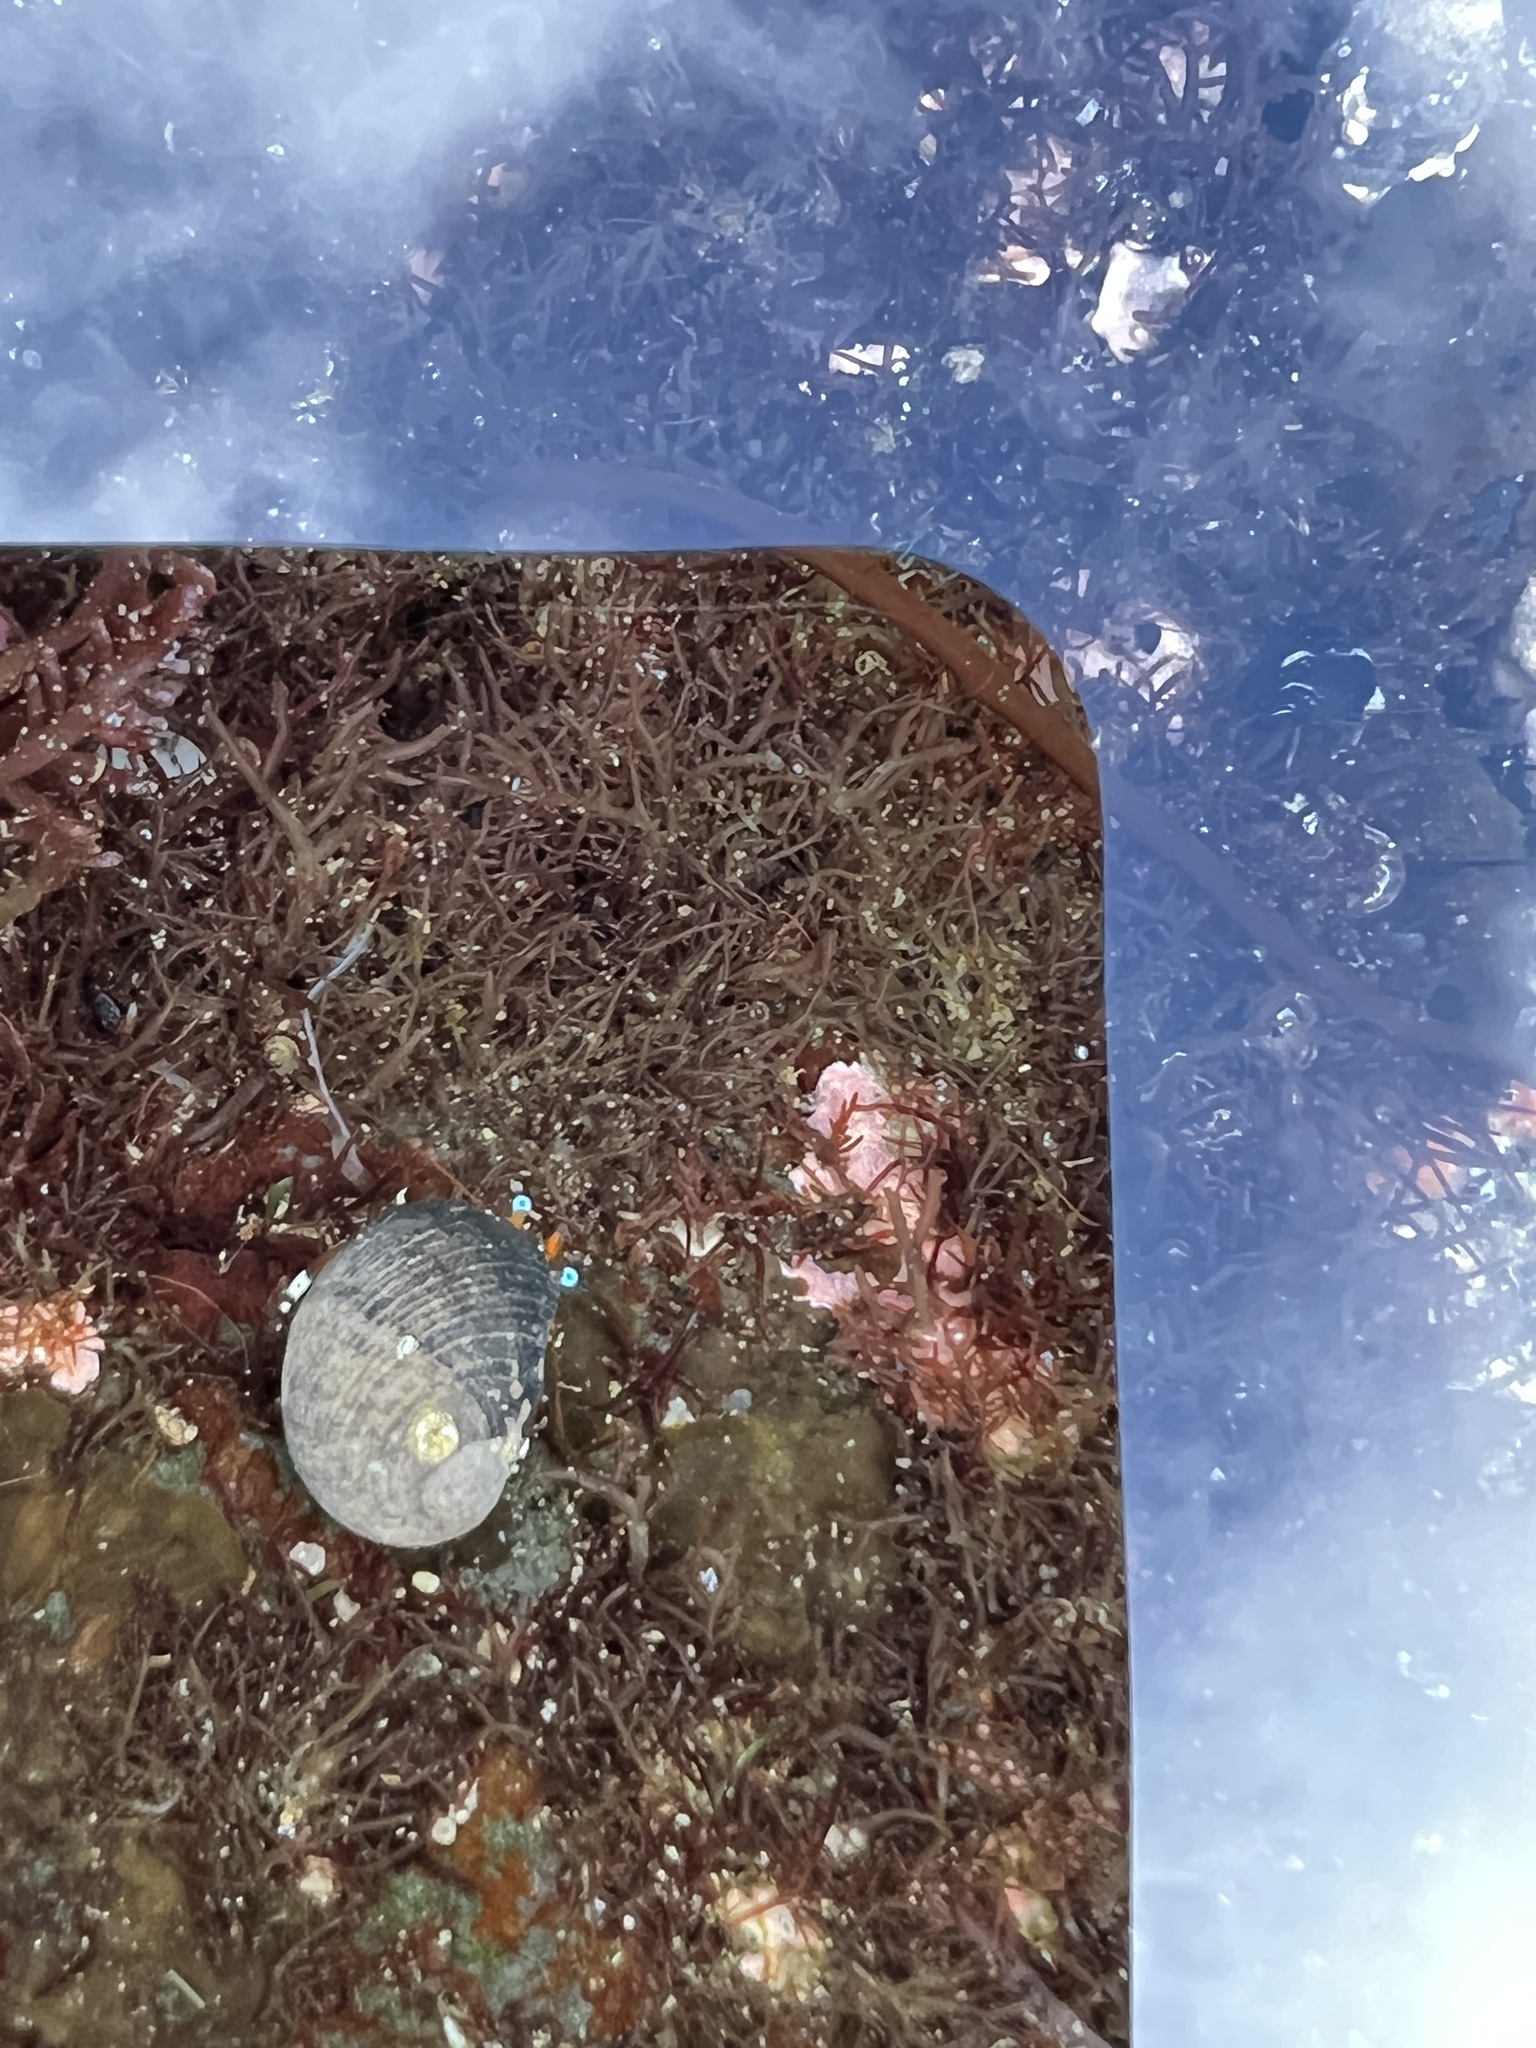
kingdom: Animalia
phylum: Arthropoda
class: Malacostraca
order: Decapoda
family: Diogenidae
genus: Calcinus
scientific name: Calcinus laevimanus
